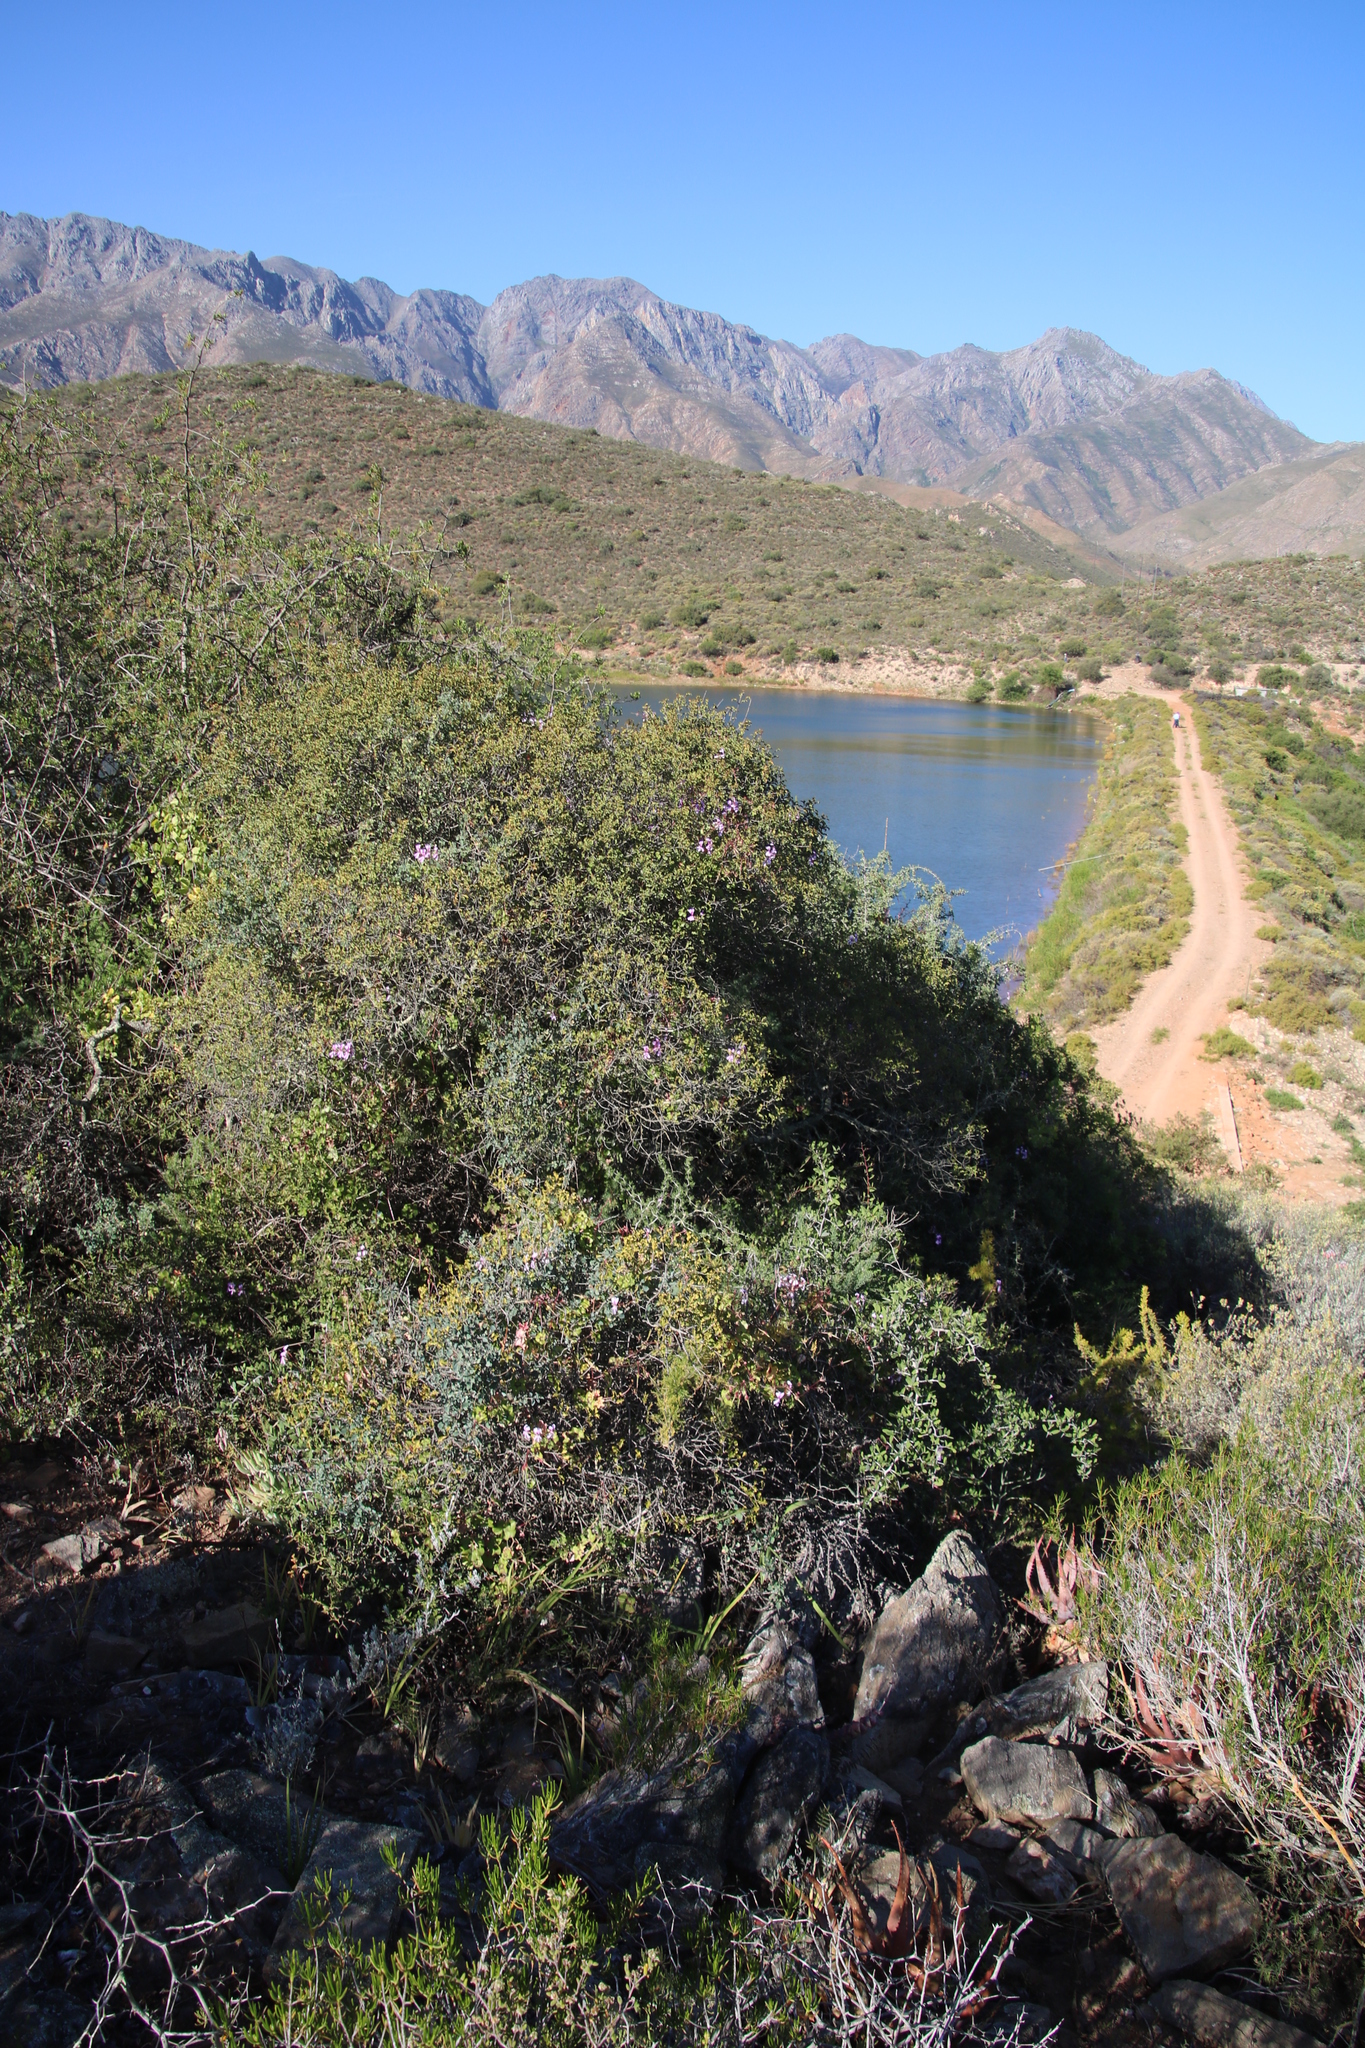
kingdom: Plantae
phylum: Tracheophyta
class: Magnoliopsida
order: Geraniales
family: Geraniaceae
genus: Pelargonium
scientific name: Pelargonium peltatum
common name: Ivyleaf geranium
